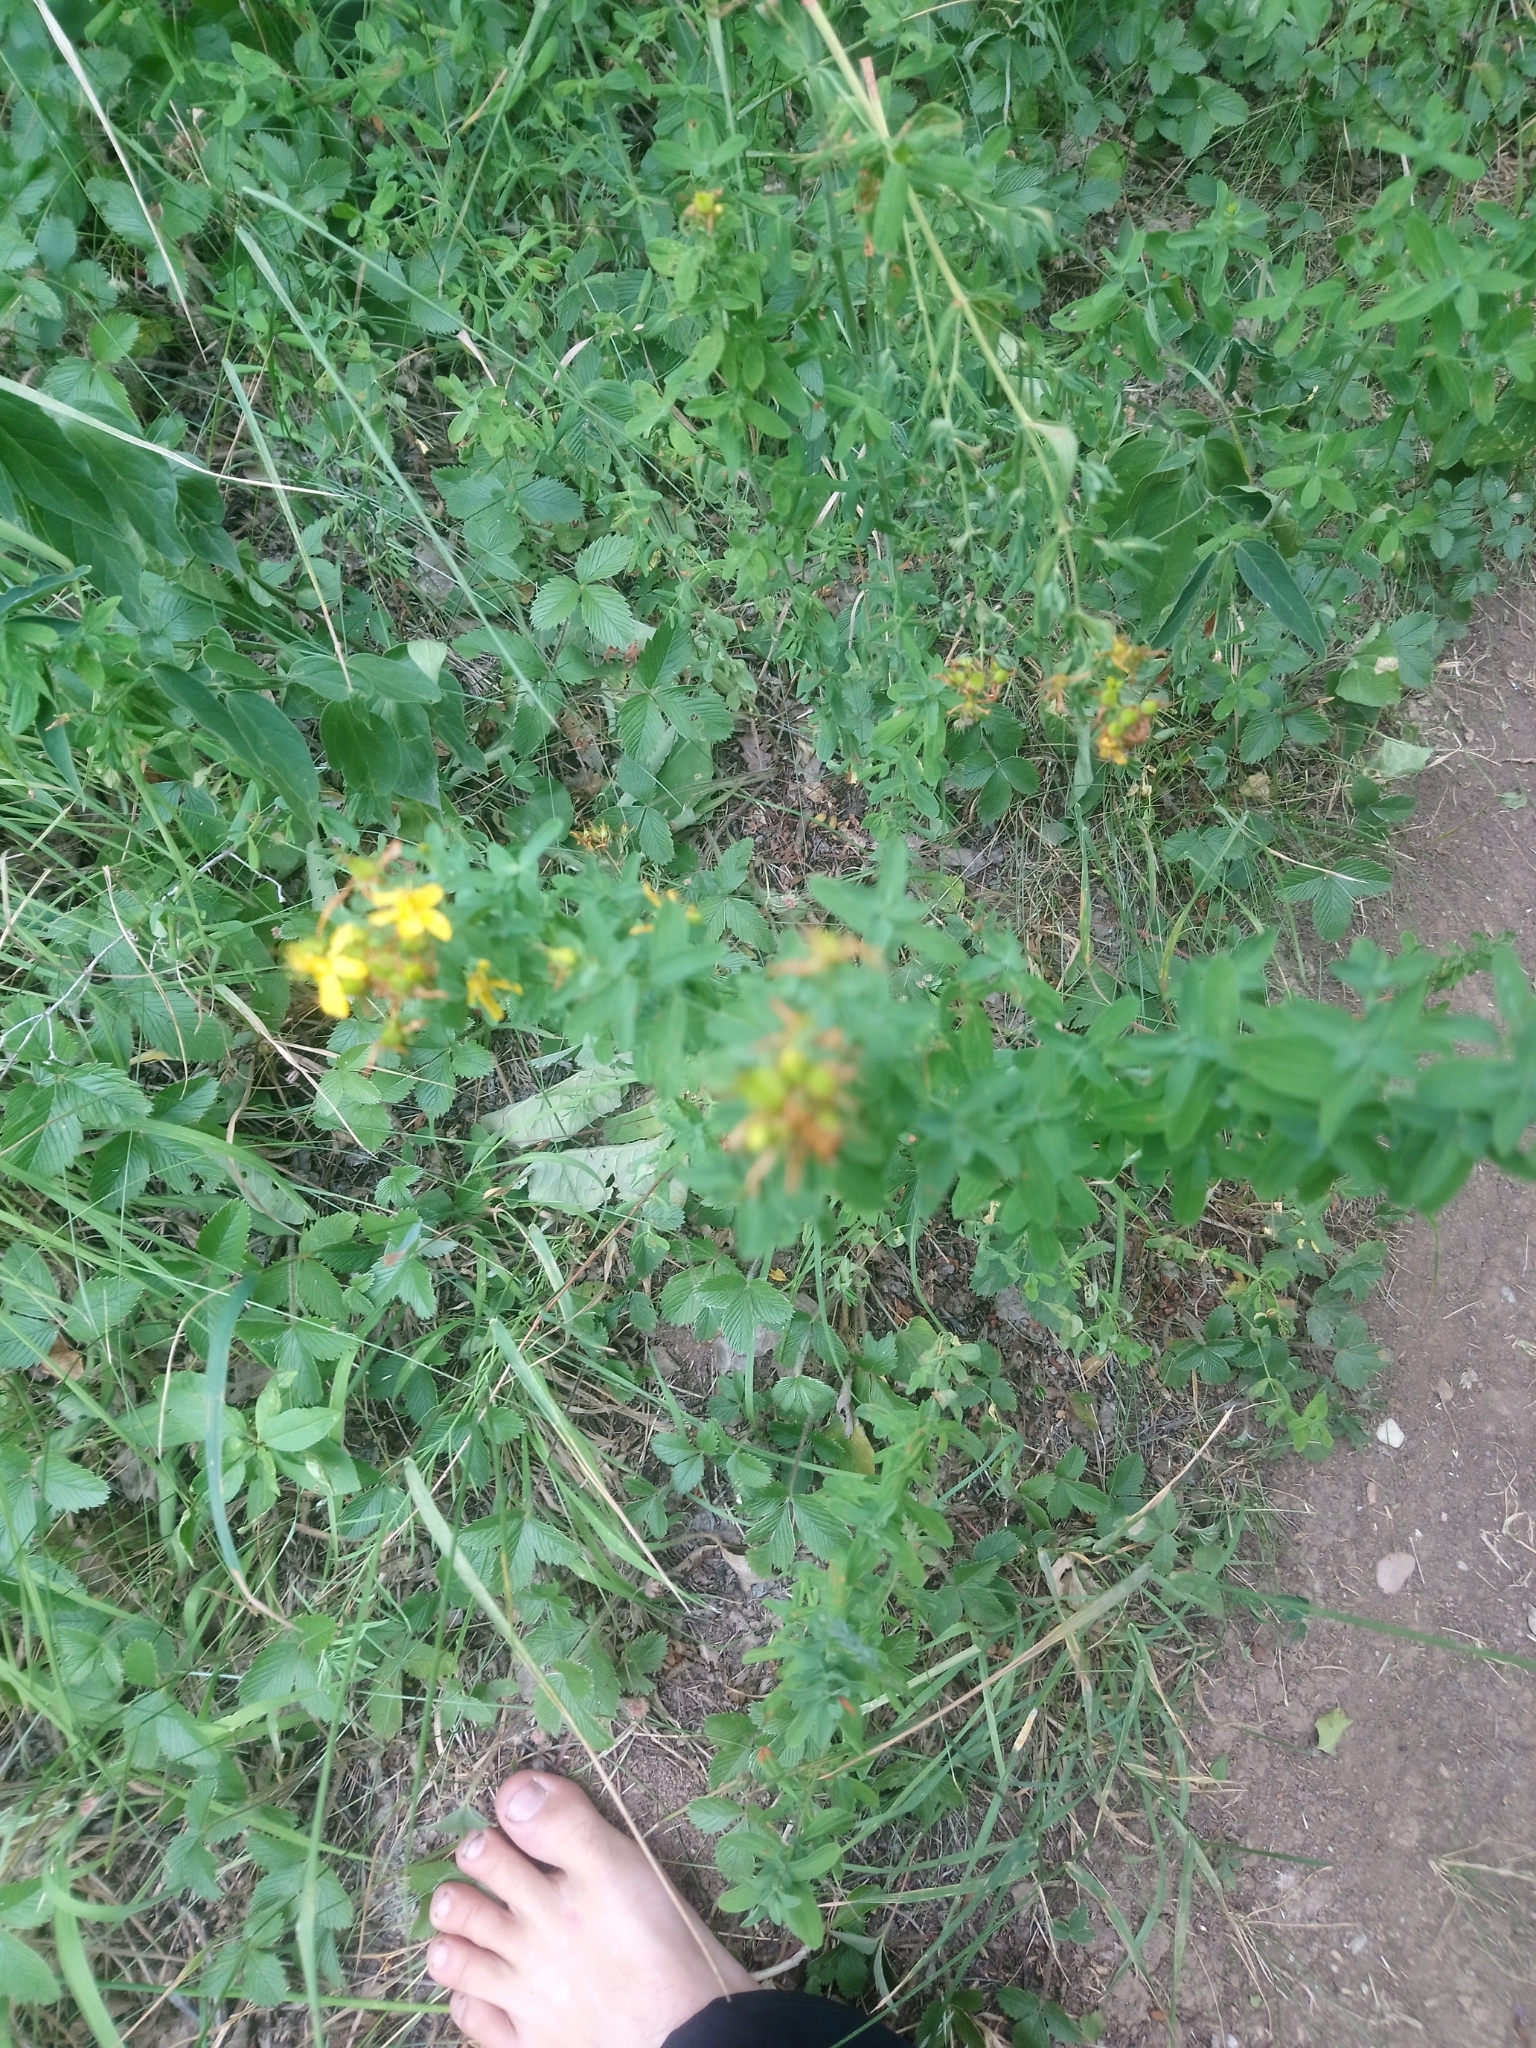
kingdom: Plantae
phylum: Tracheophyta
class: Magnoliopsida
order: Malpighiales
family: Hypericaceae
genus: Hypericum
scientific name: Hypericum perforatum
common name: Common st. johnswort
